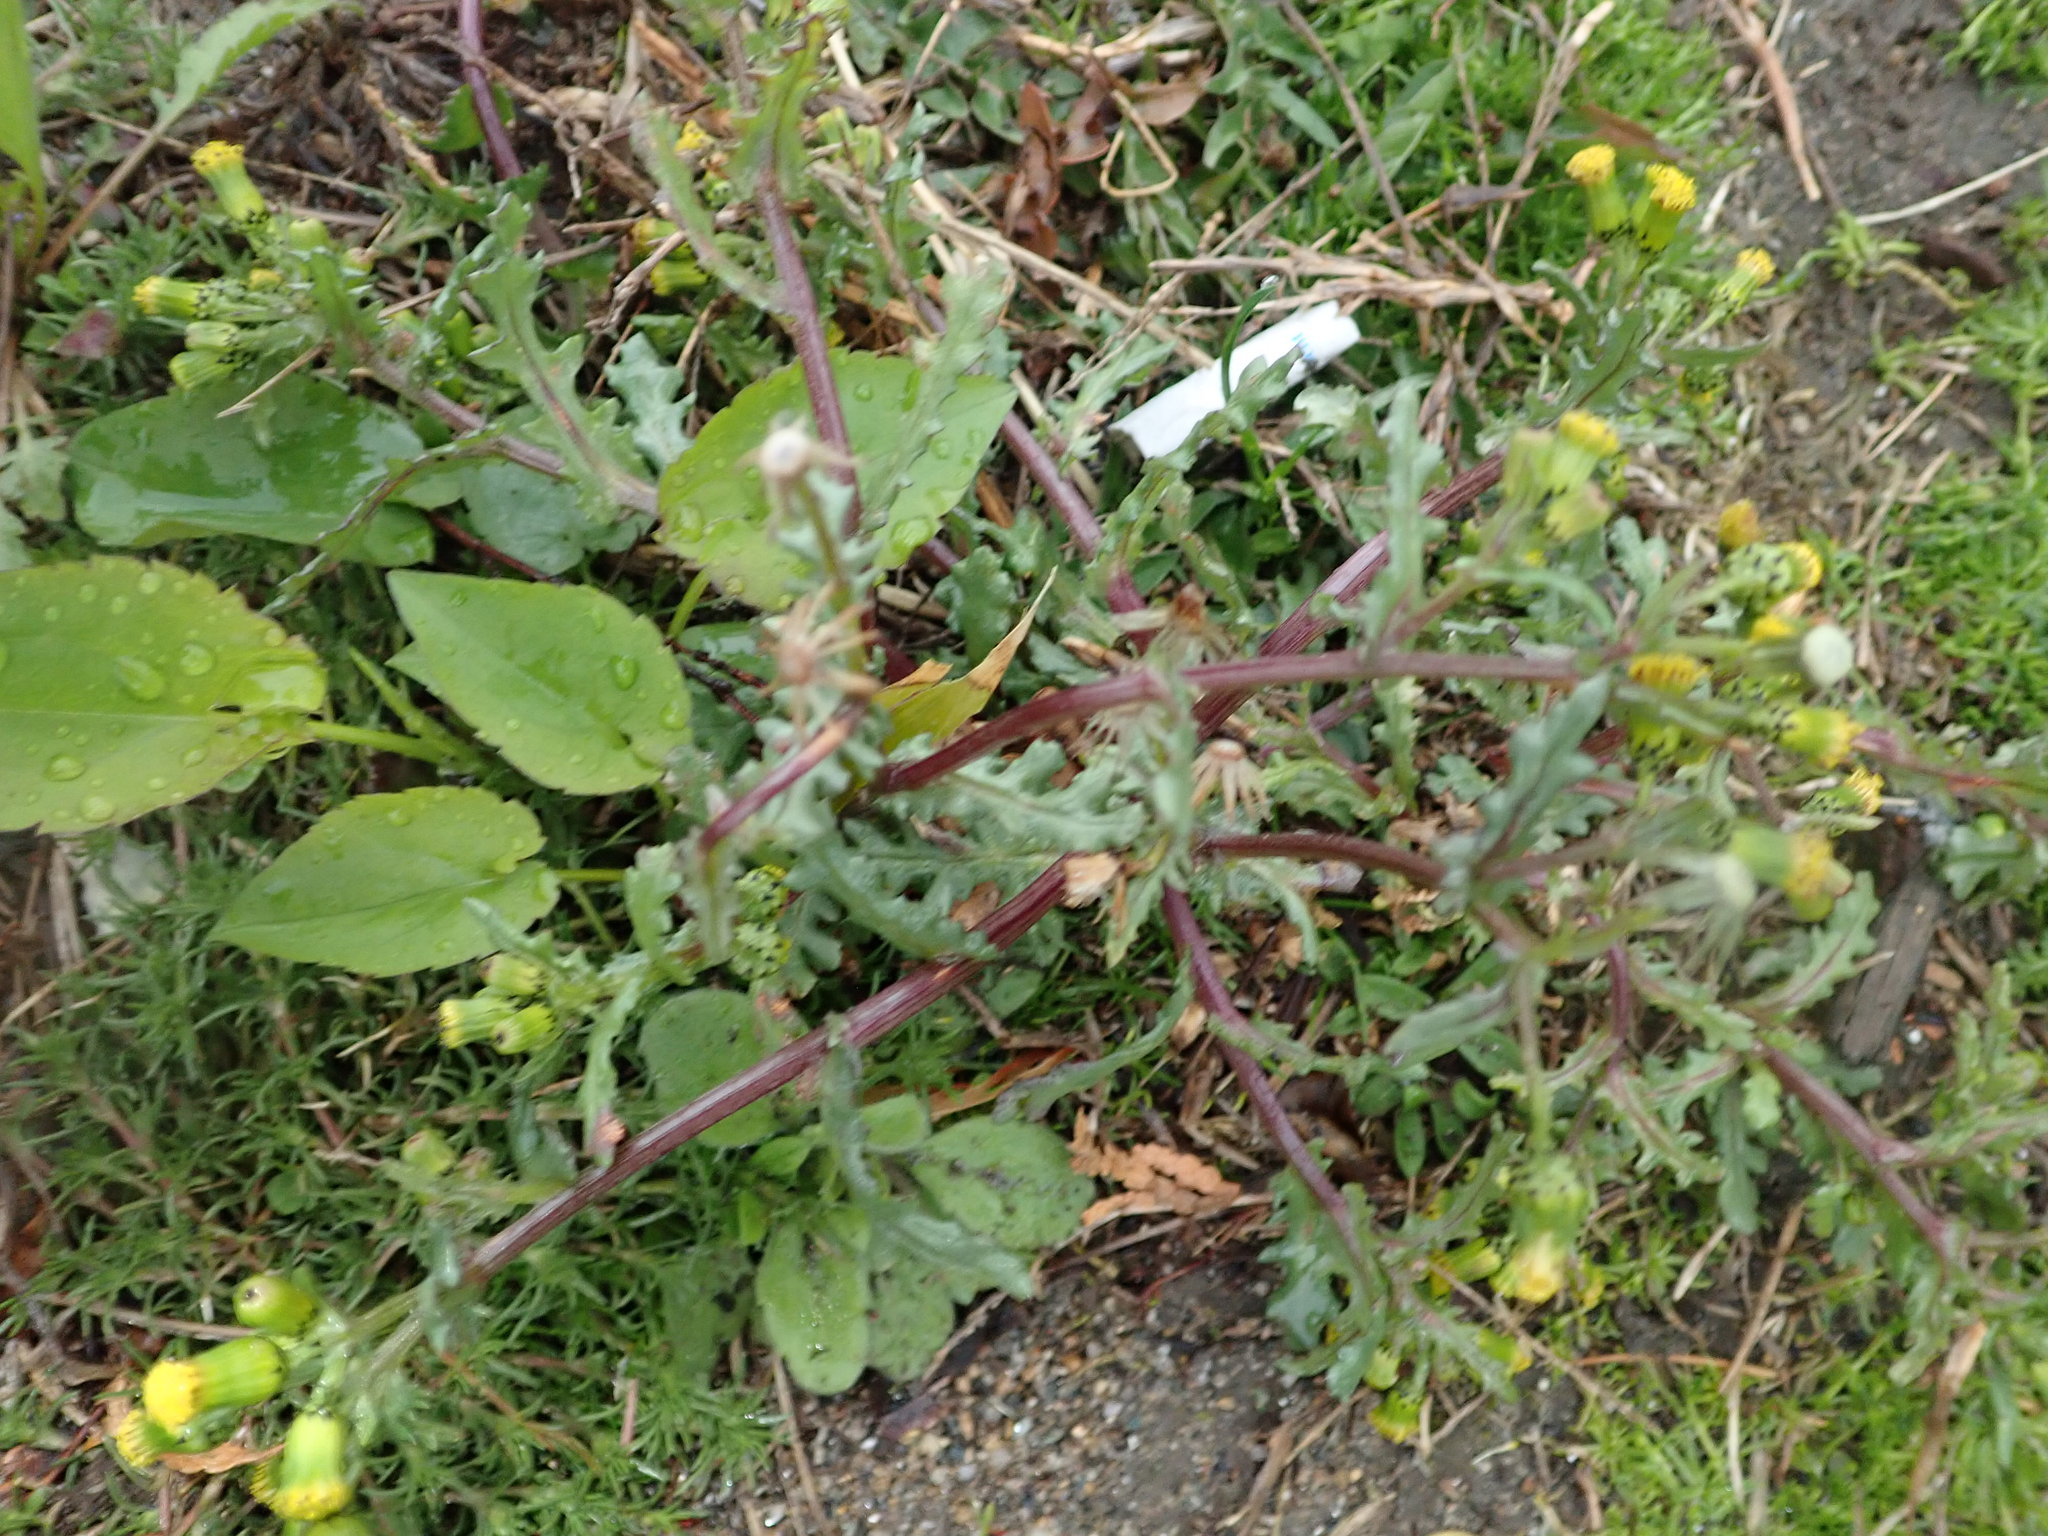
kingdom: Plantae
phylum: Tracheophyta
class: Magnoliopsida
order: Asterales
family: Asteraceae
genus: Senecio
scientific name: Senecio vulgaris
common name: Old-man-in-the-spring
